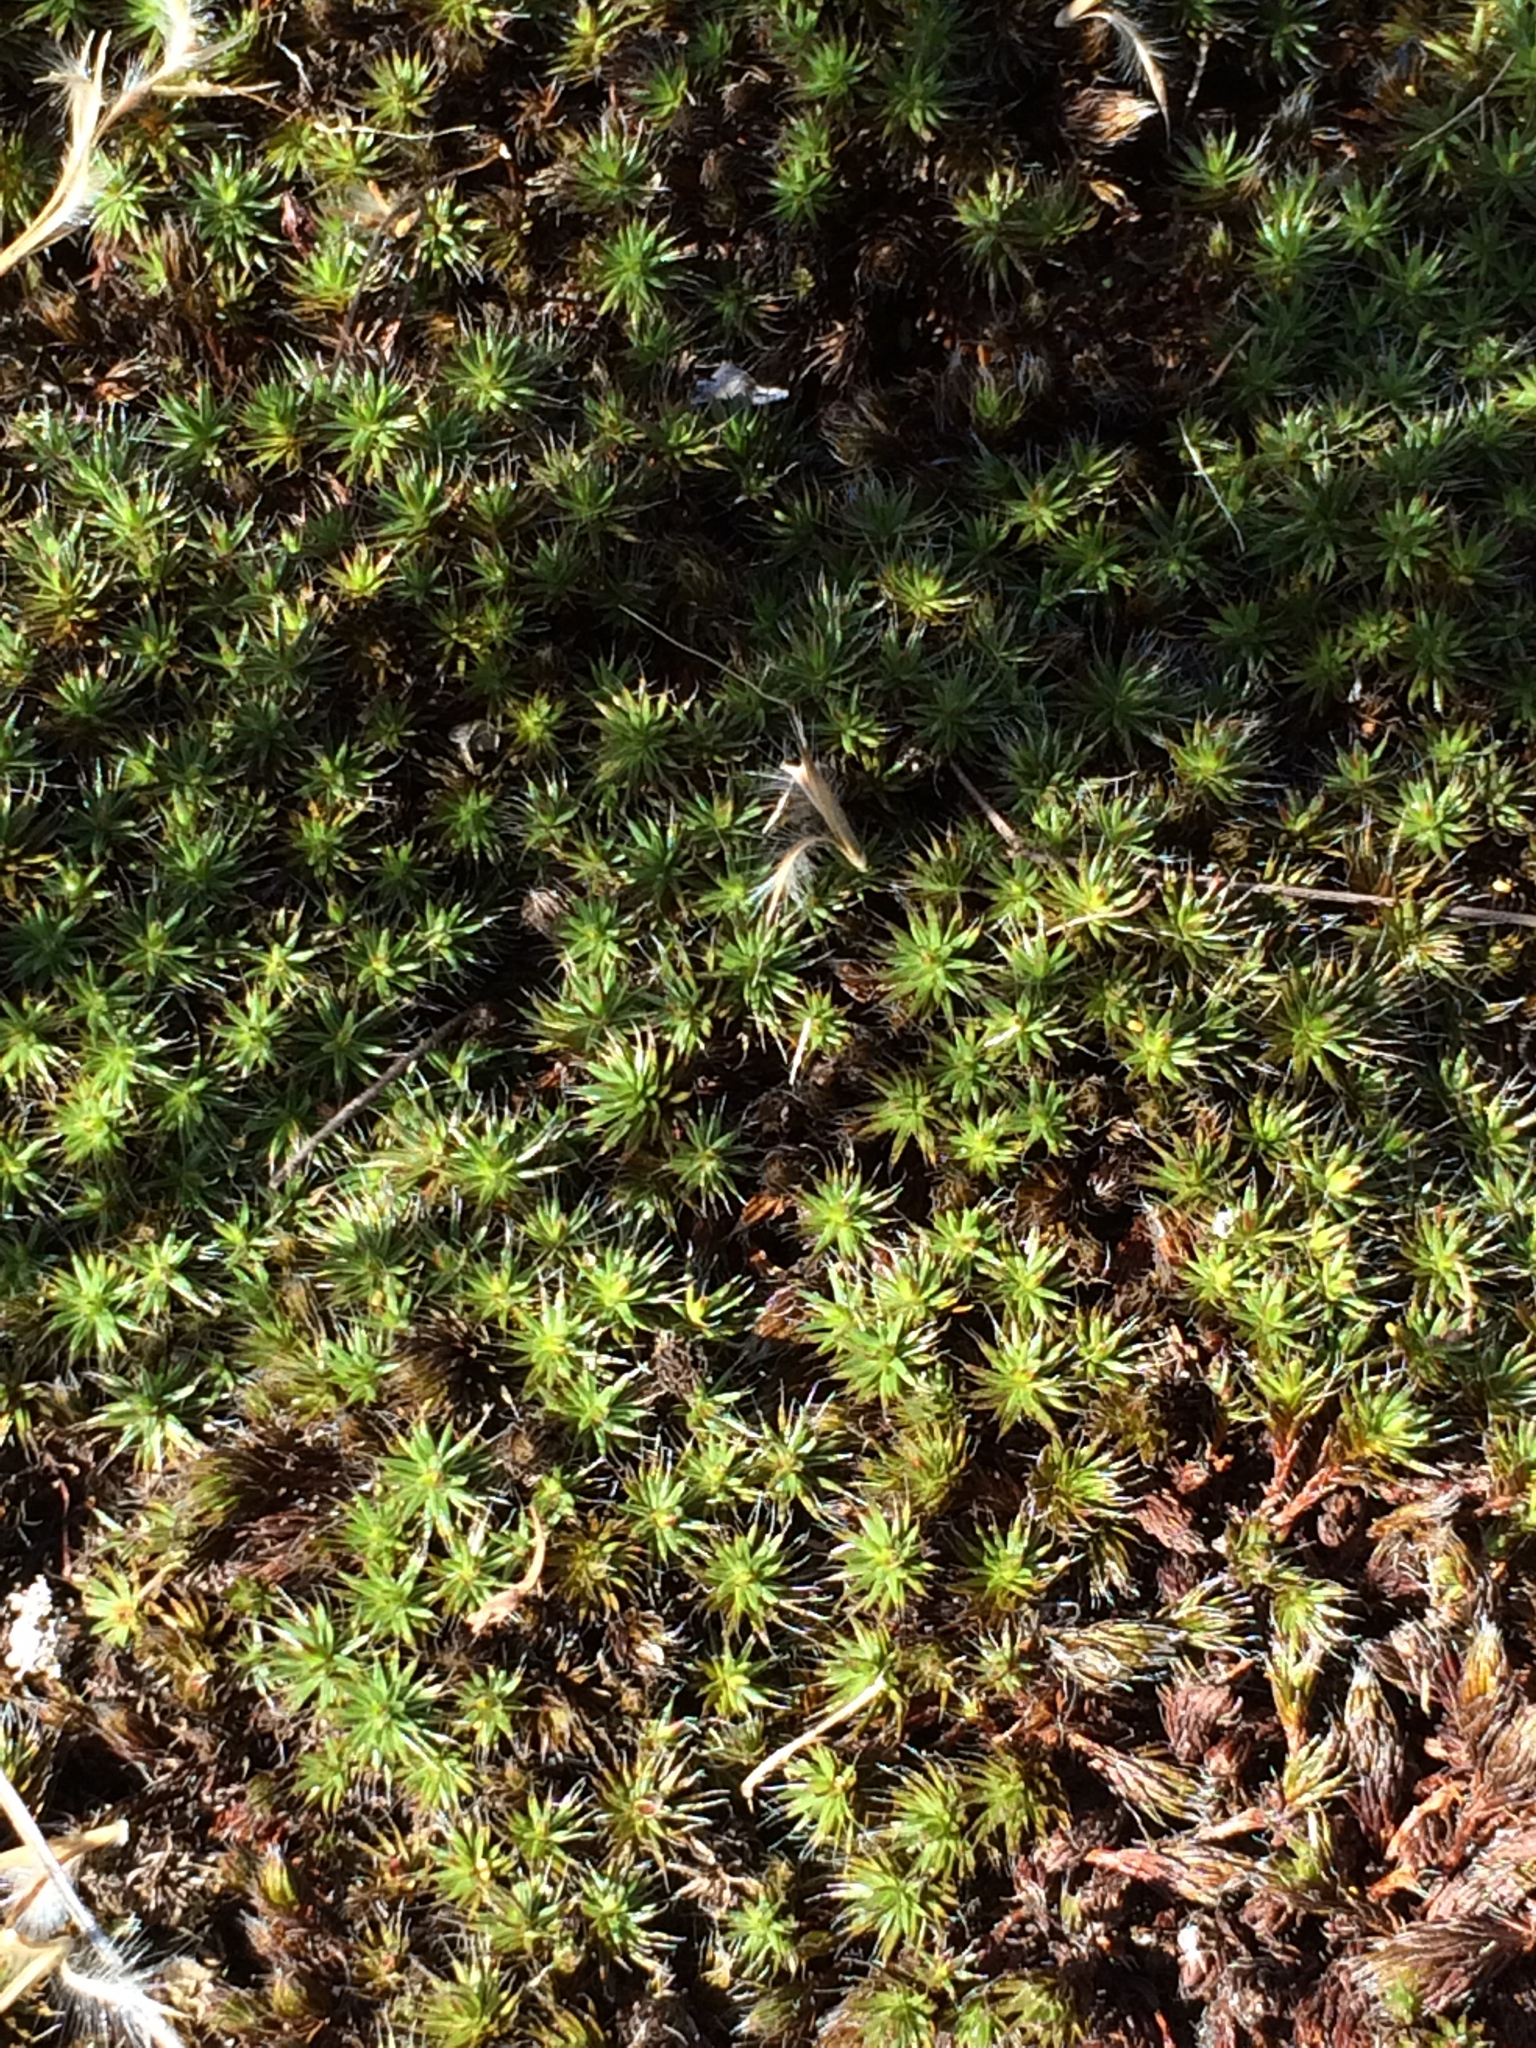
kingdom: Plantae
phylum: Bryophyta
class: Polytrichopsida
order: Polytrichales
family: Polytrichaceae
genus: Polytrichum
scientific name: Polytrichum piliferum
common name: Bristly haircap
